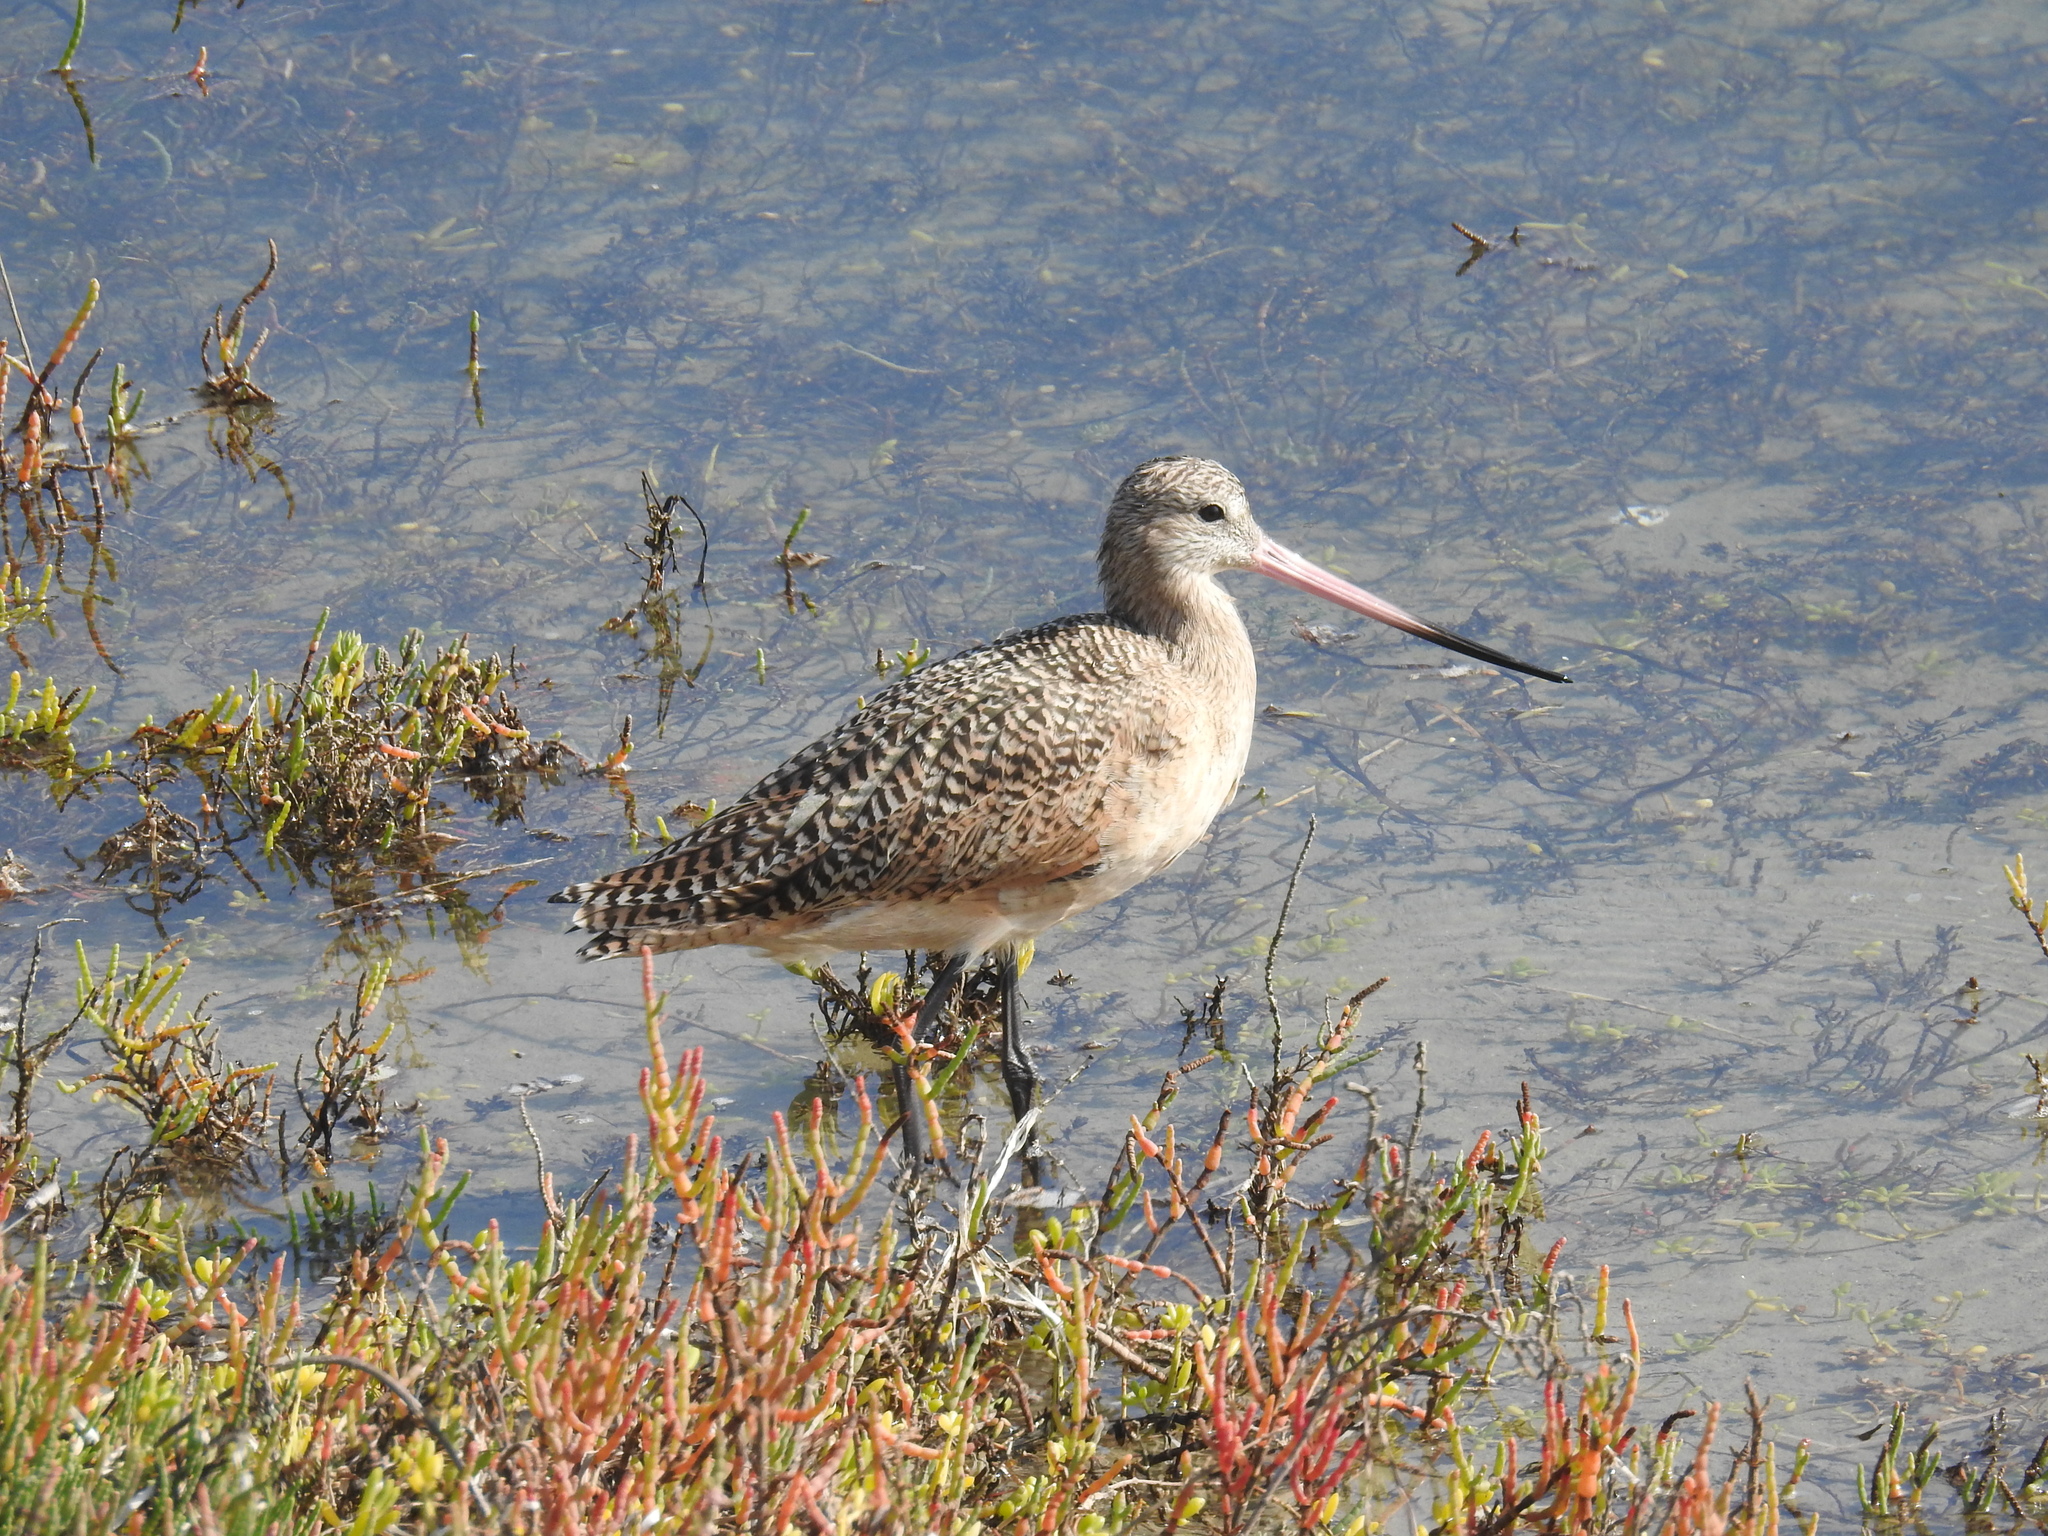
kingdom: Animalia
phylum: Chordata
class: Aves
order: Charadriiformes
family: Scolopacidae
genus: Limosa
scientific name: Limosa fedoa
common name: Marbled godwit
